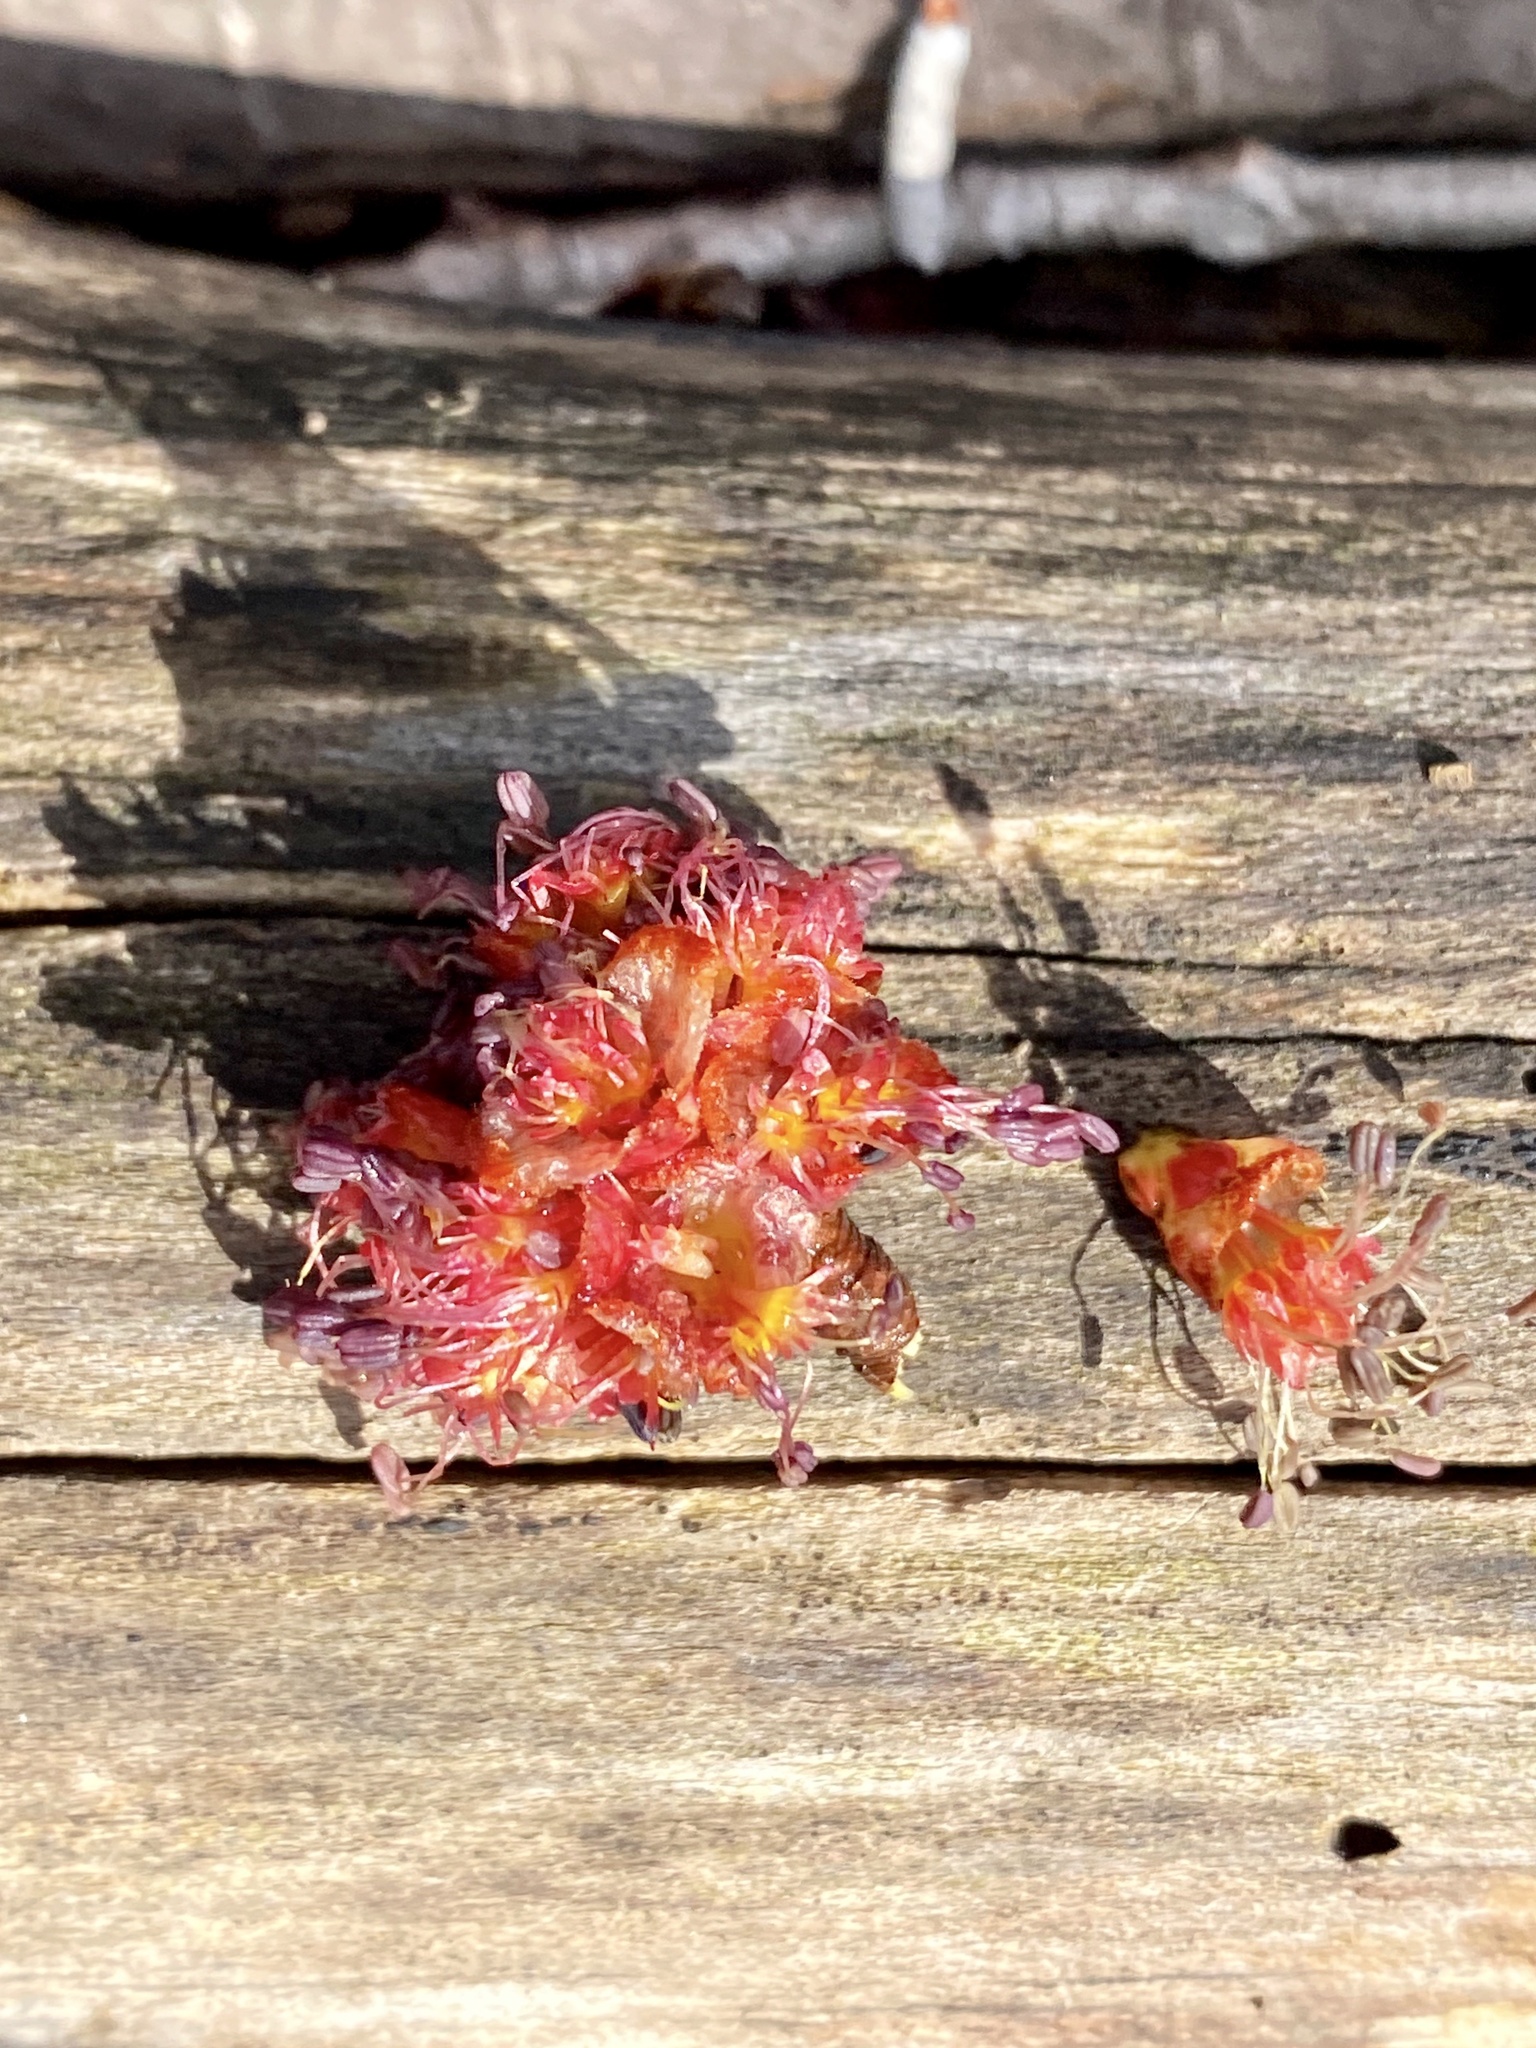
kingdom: Plantae
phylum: Tracheophyta
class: Magnoliopsida
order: Sapindales
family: Sapindaceae
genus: Acer
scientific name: Acer rubrum
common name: Red maple
